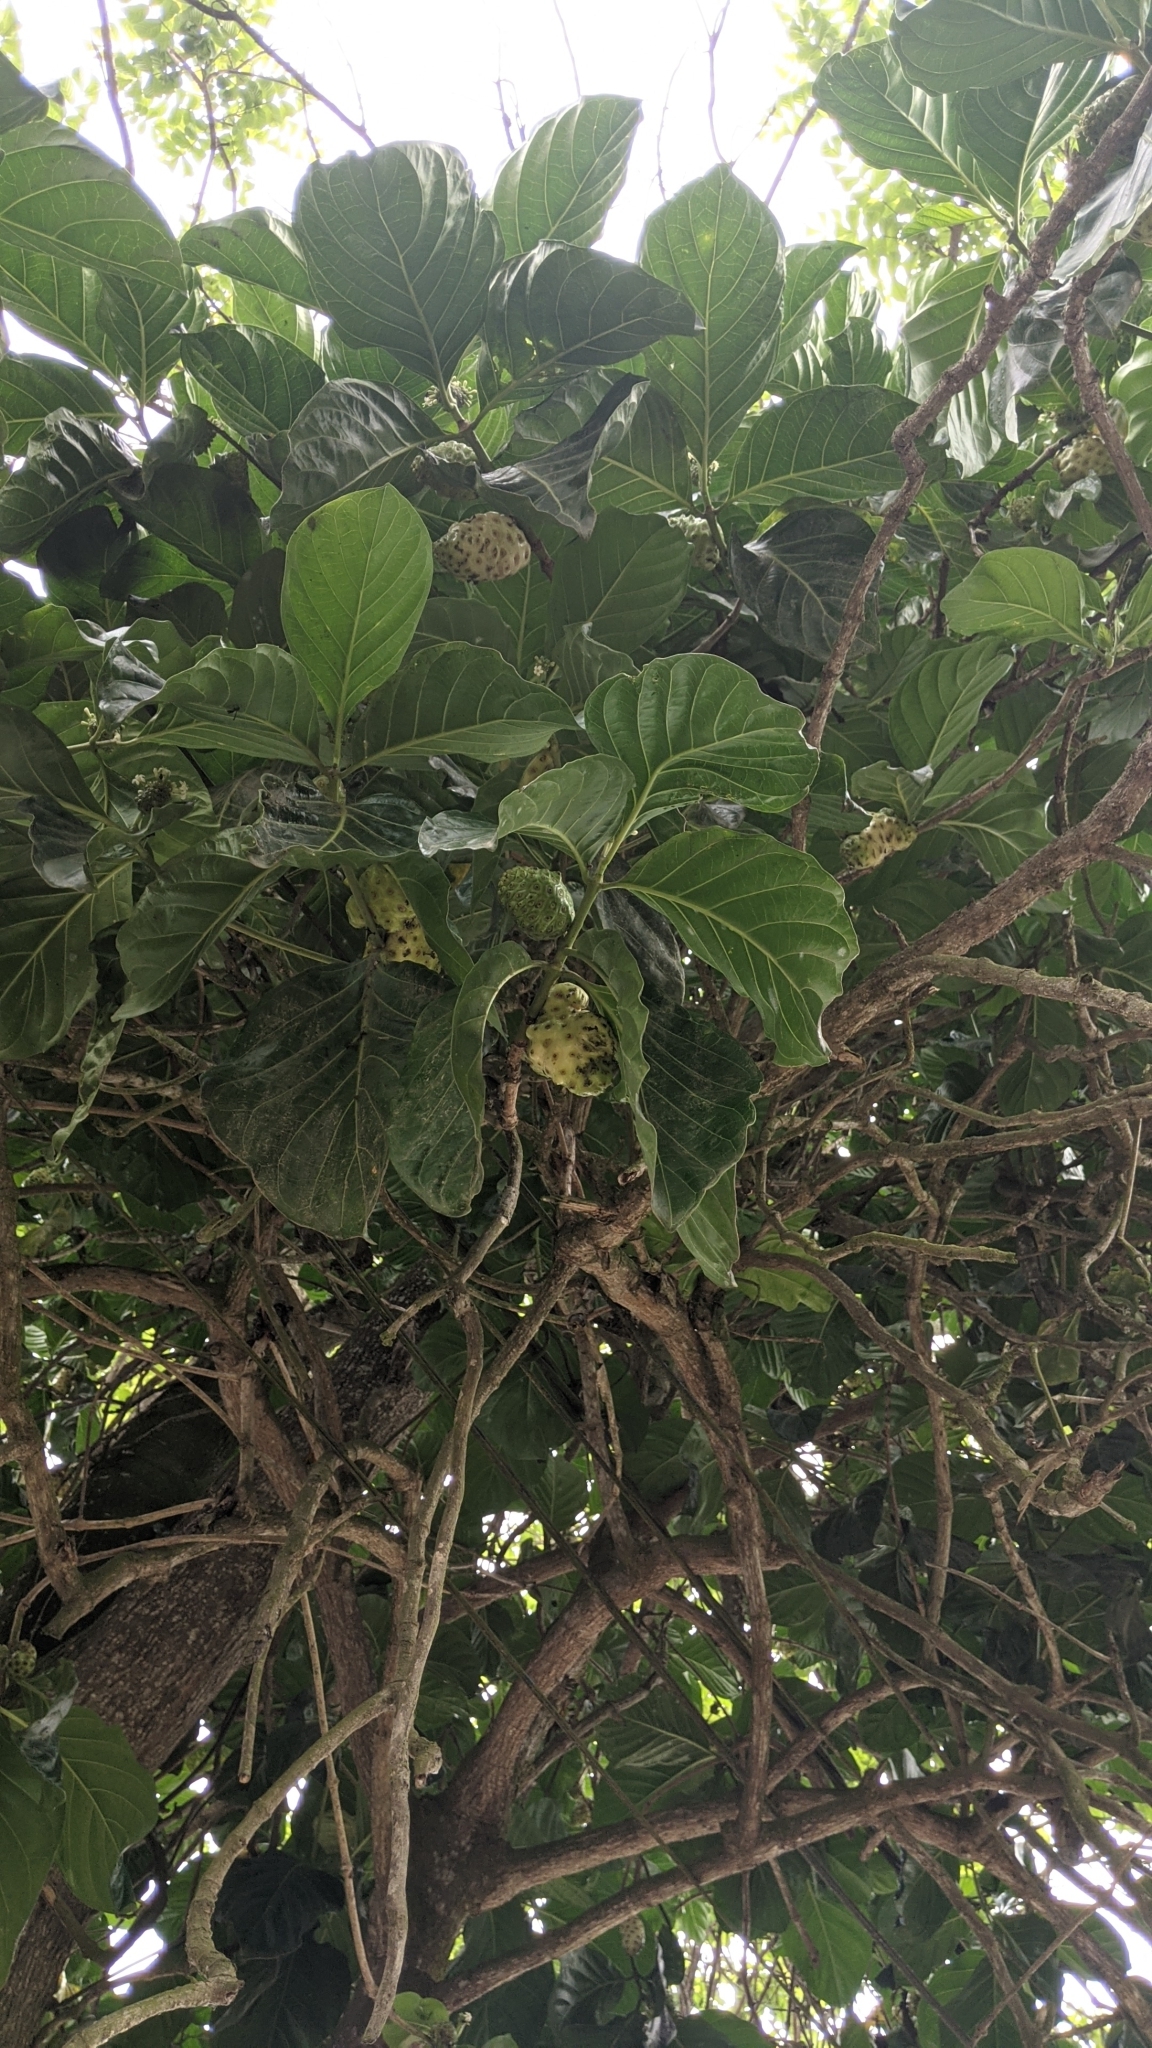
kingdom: Plantae
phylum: Tracheophyta
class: Magnoliopsida
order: Gentianales
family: Rubiaceae
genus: Morinda
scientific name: Morinda citrifolia
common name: Indian-mulberry
